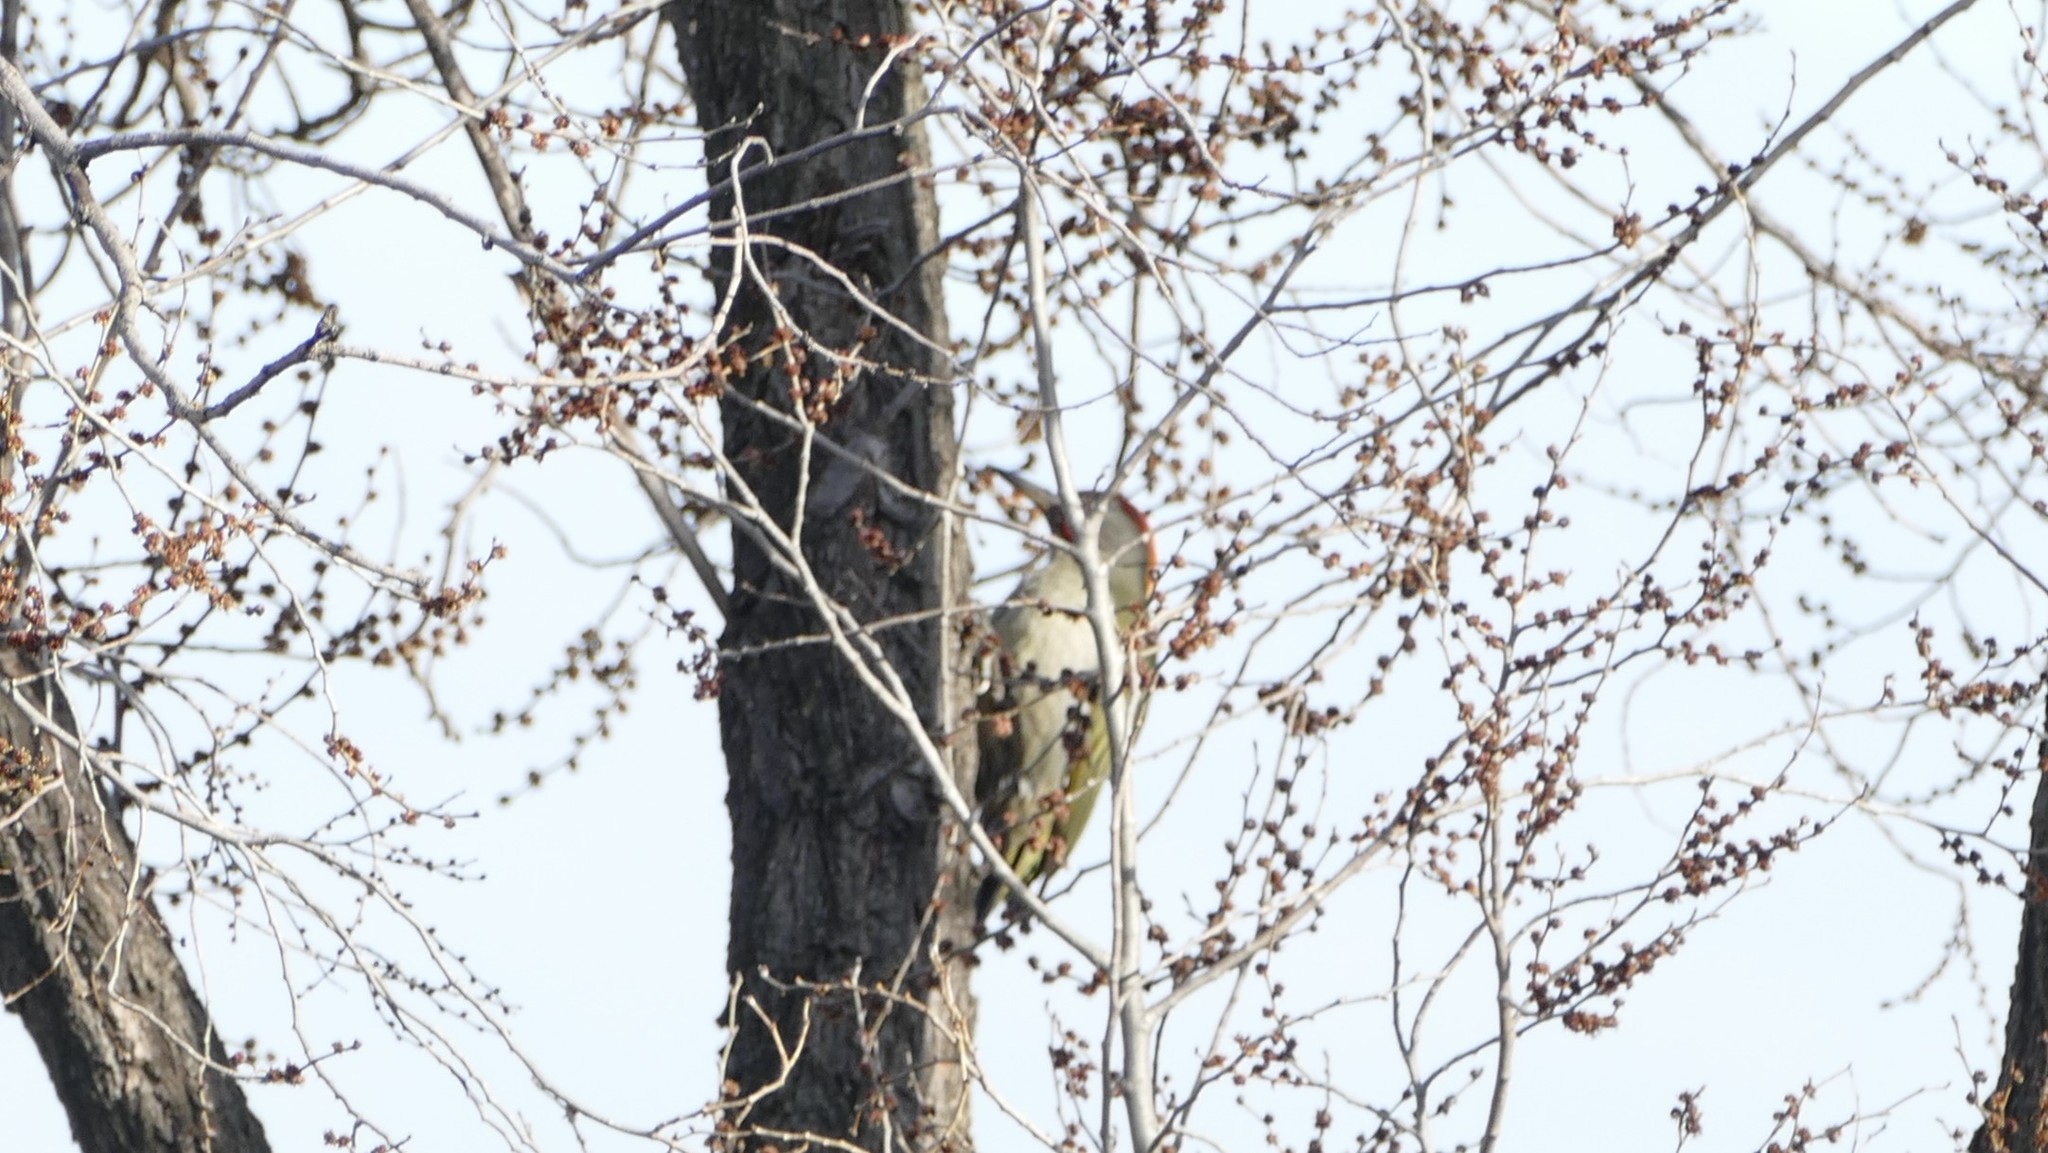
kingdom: Animalia
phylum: Chordata
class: Aves
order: Piciformes
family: Picidae
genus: Picus
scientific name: Picus sharpei
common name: Iberian green woodpecker
